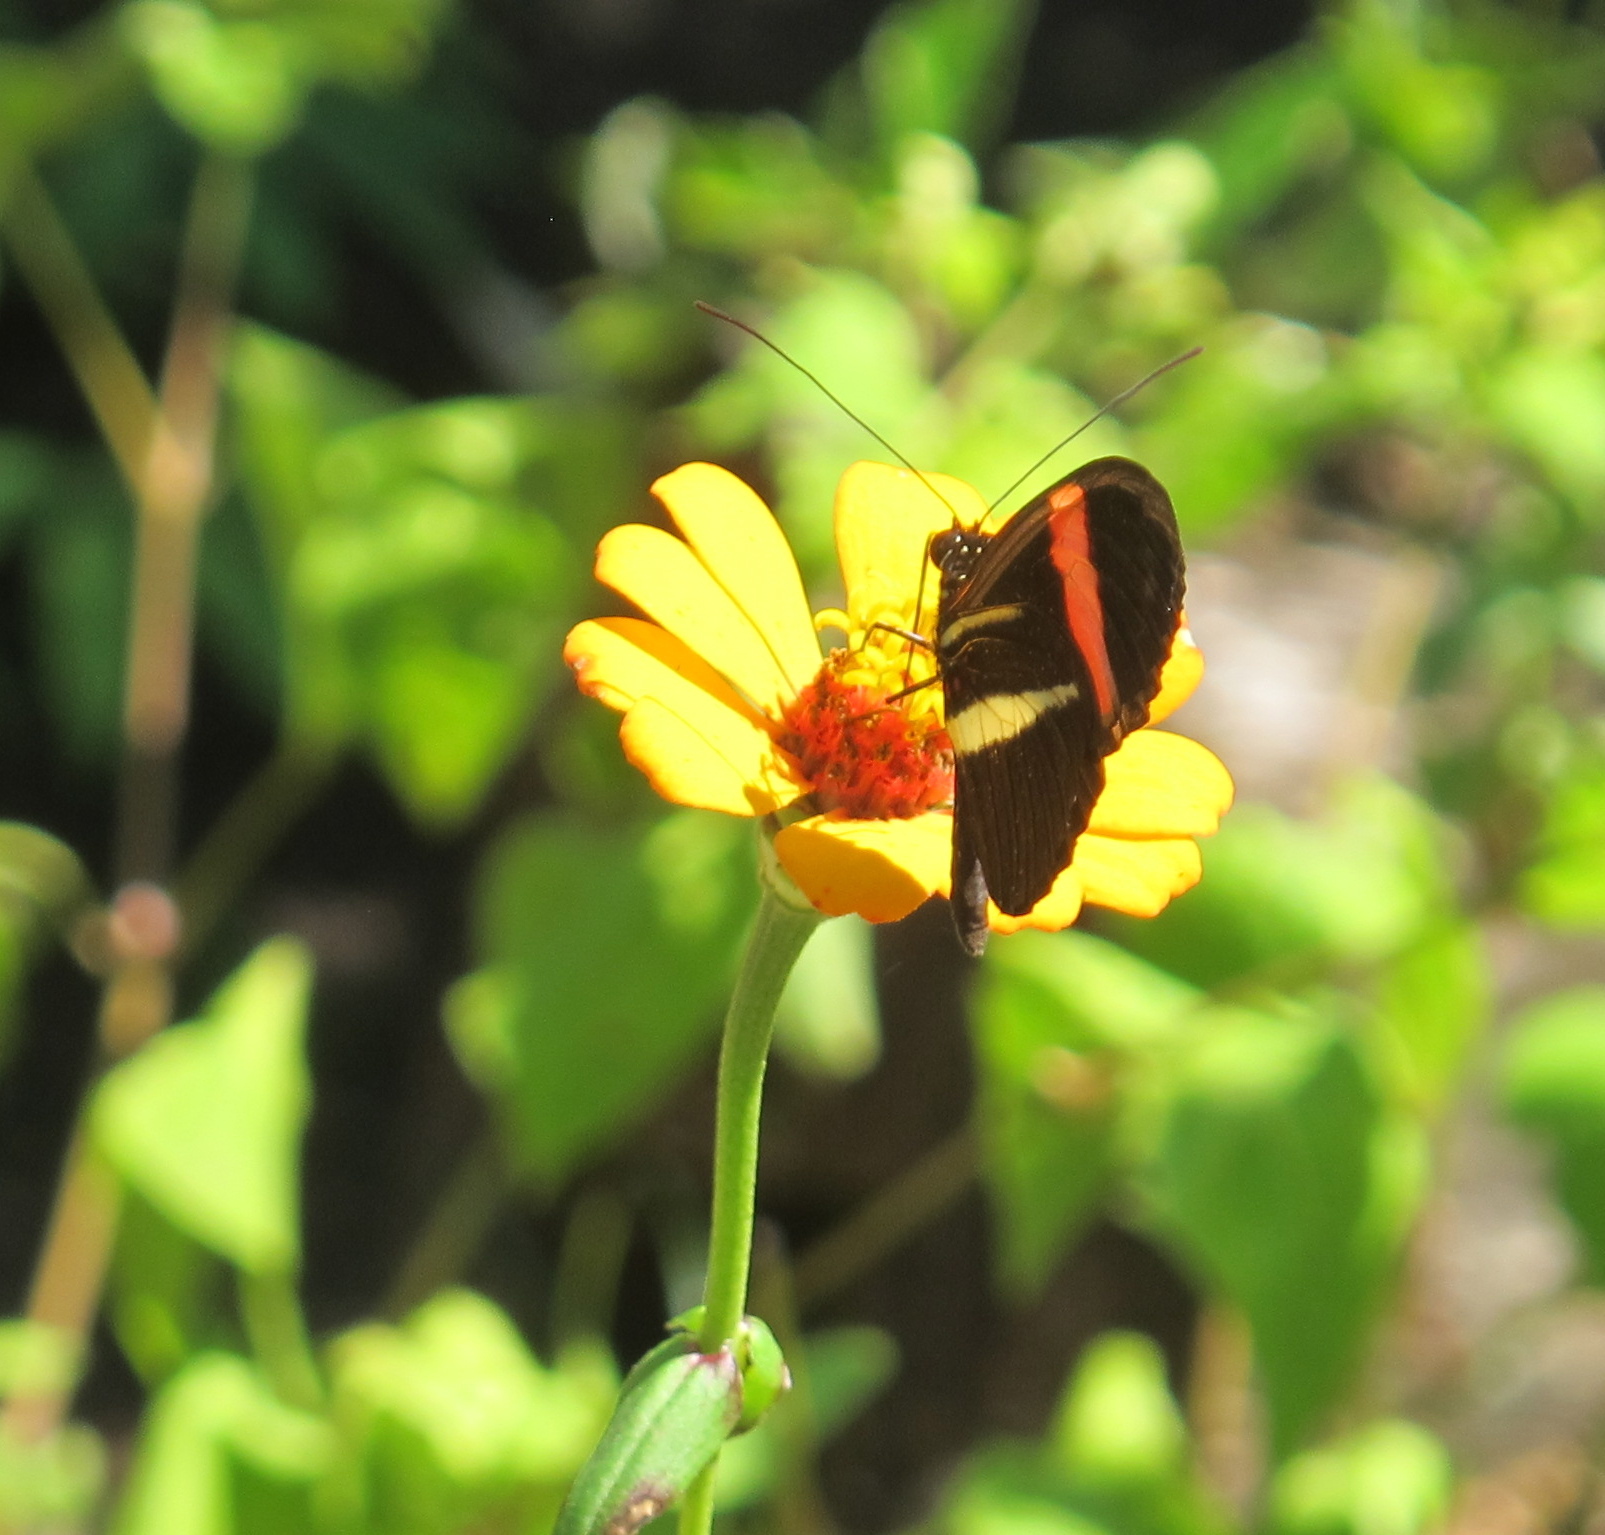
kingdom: Animalia
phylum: Arthropoda
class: Insecta
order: Lepidoptera
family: Nymphalidae
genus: Tirumala
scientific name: Tirumala petiverana
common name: Blue monarch
